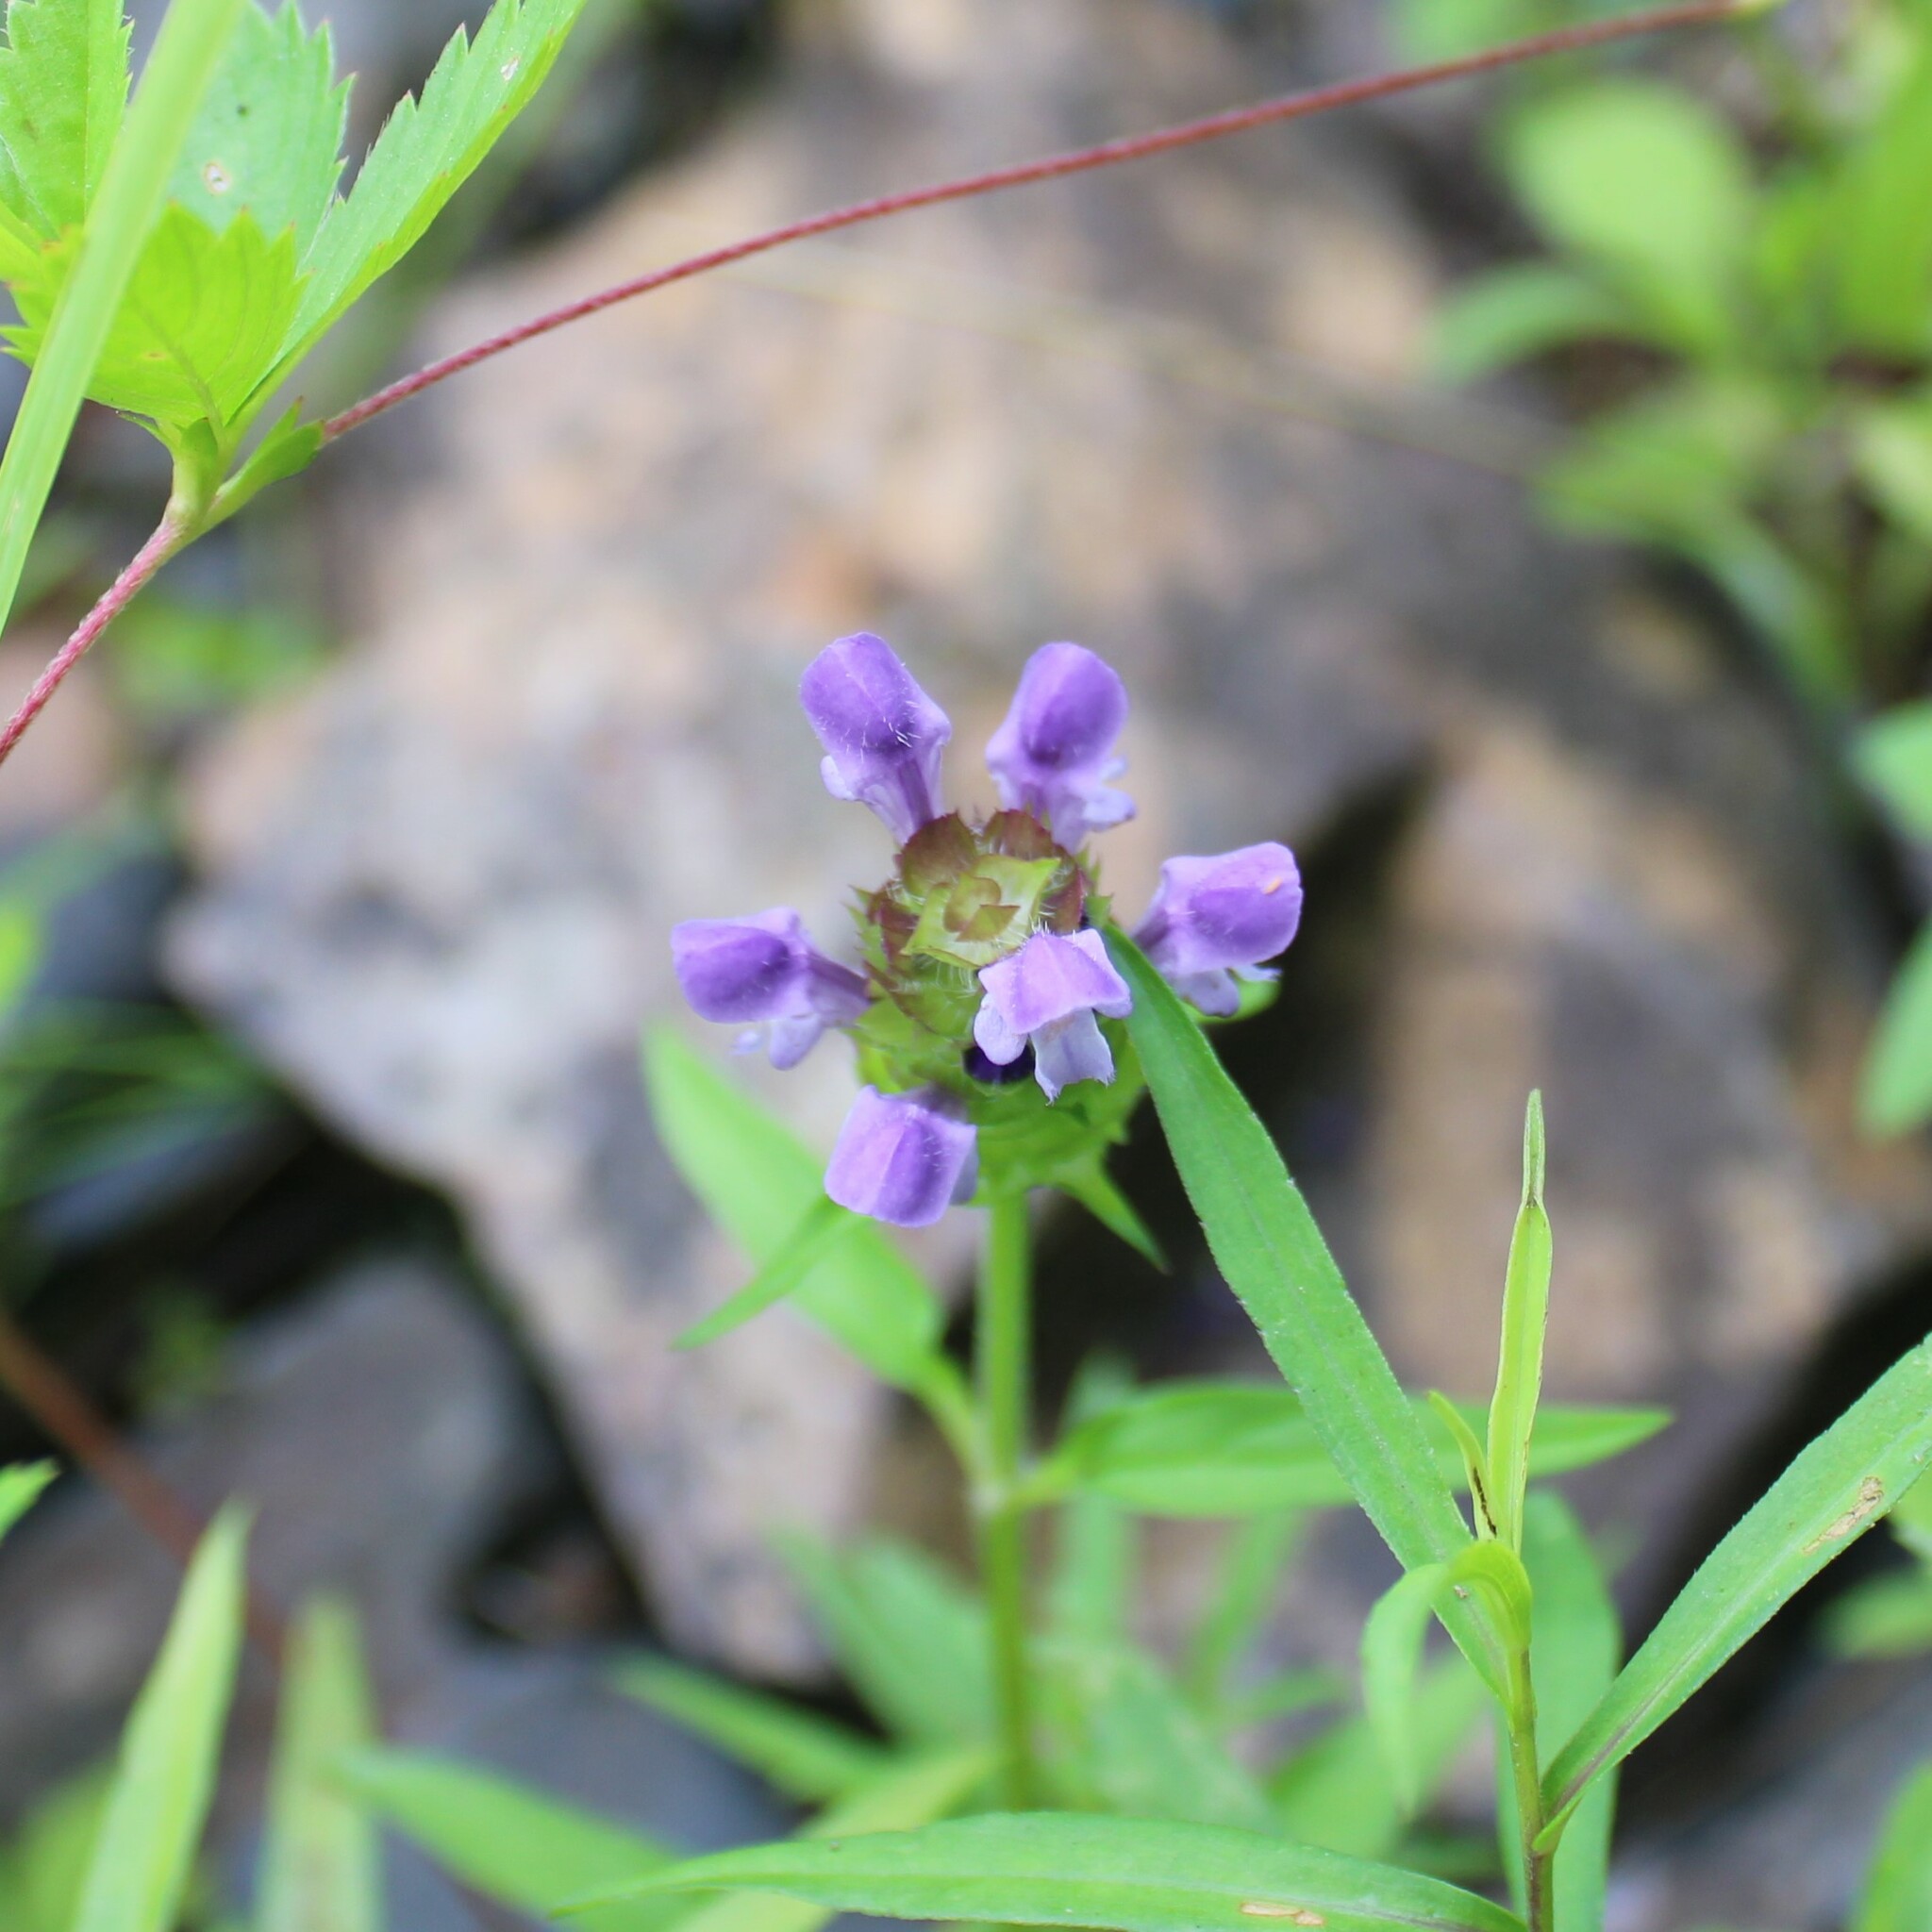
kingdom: Plantae
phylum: Tracheophyta
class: Magnoliopsida
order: Lamiales
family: Lamiaceae
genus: Prunella
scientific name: Prunella vulgaris
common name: Heal-all
